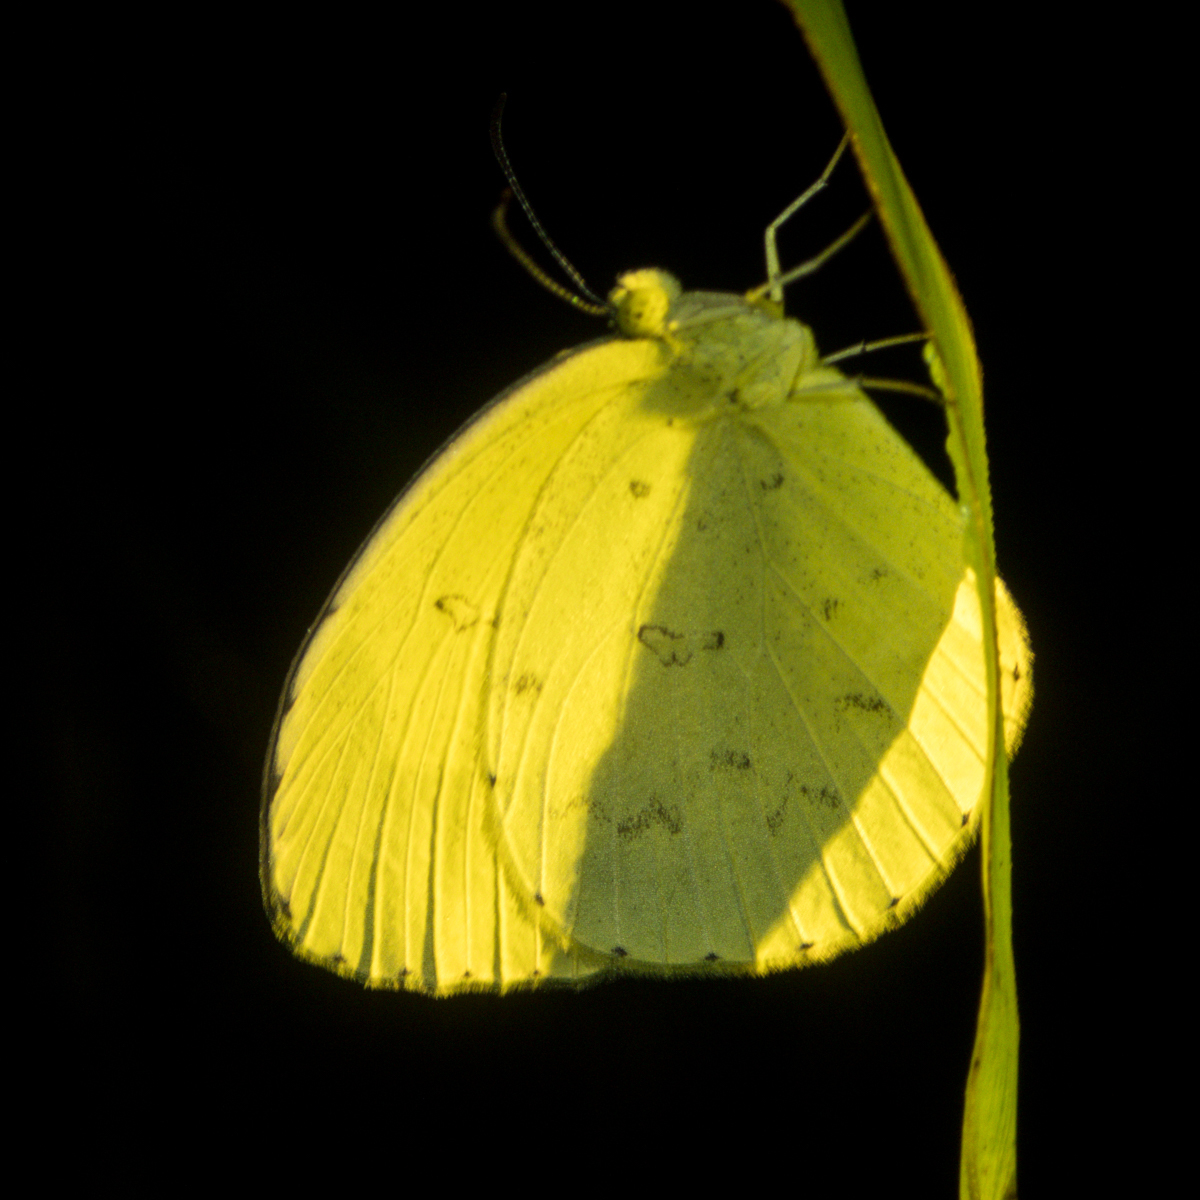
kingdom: Animalia
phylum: Arthropoda
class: Insecta
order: Lepidoptera
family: Pieridae
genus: Eurema
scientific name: Eurema hecabe
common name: Pale grass yellow
